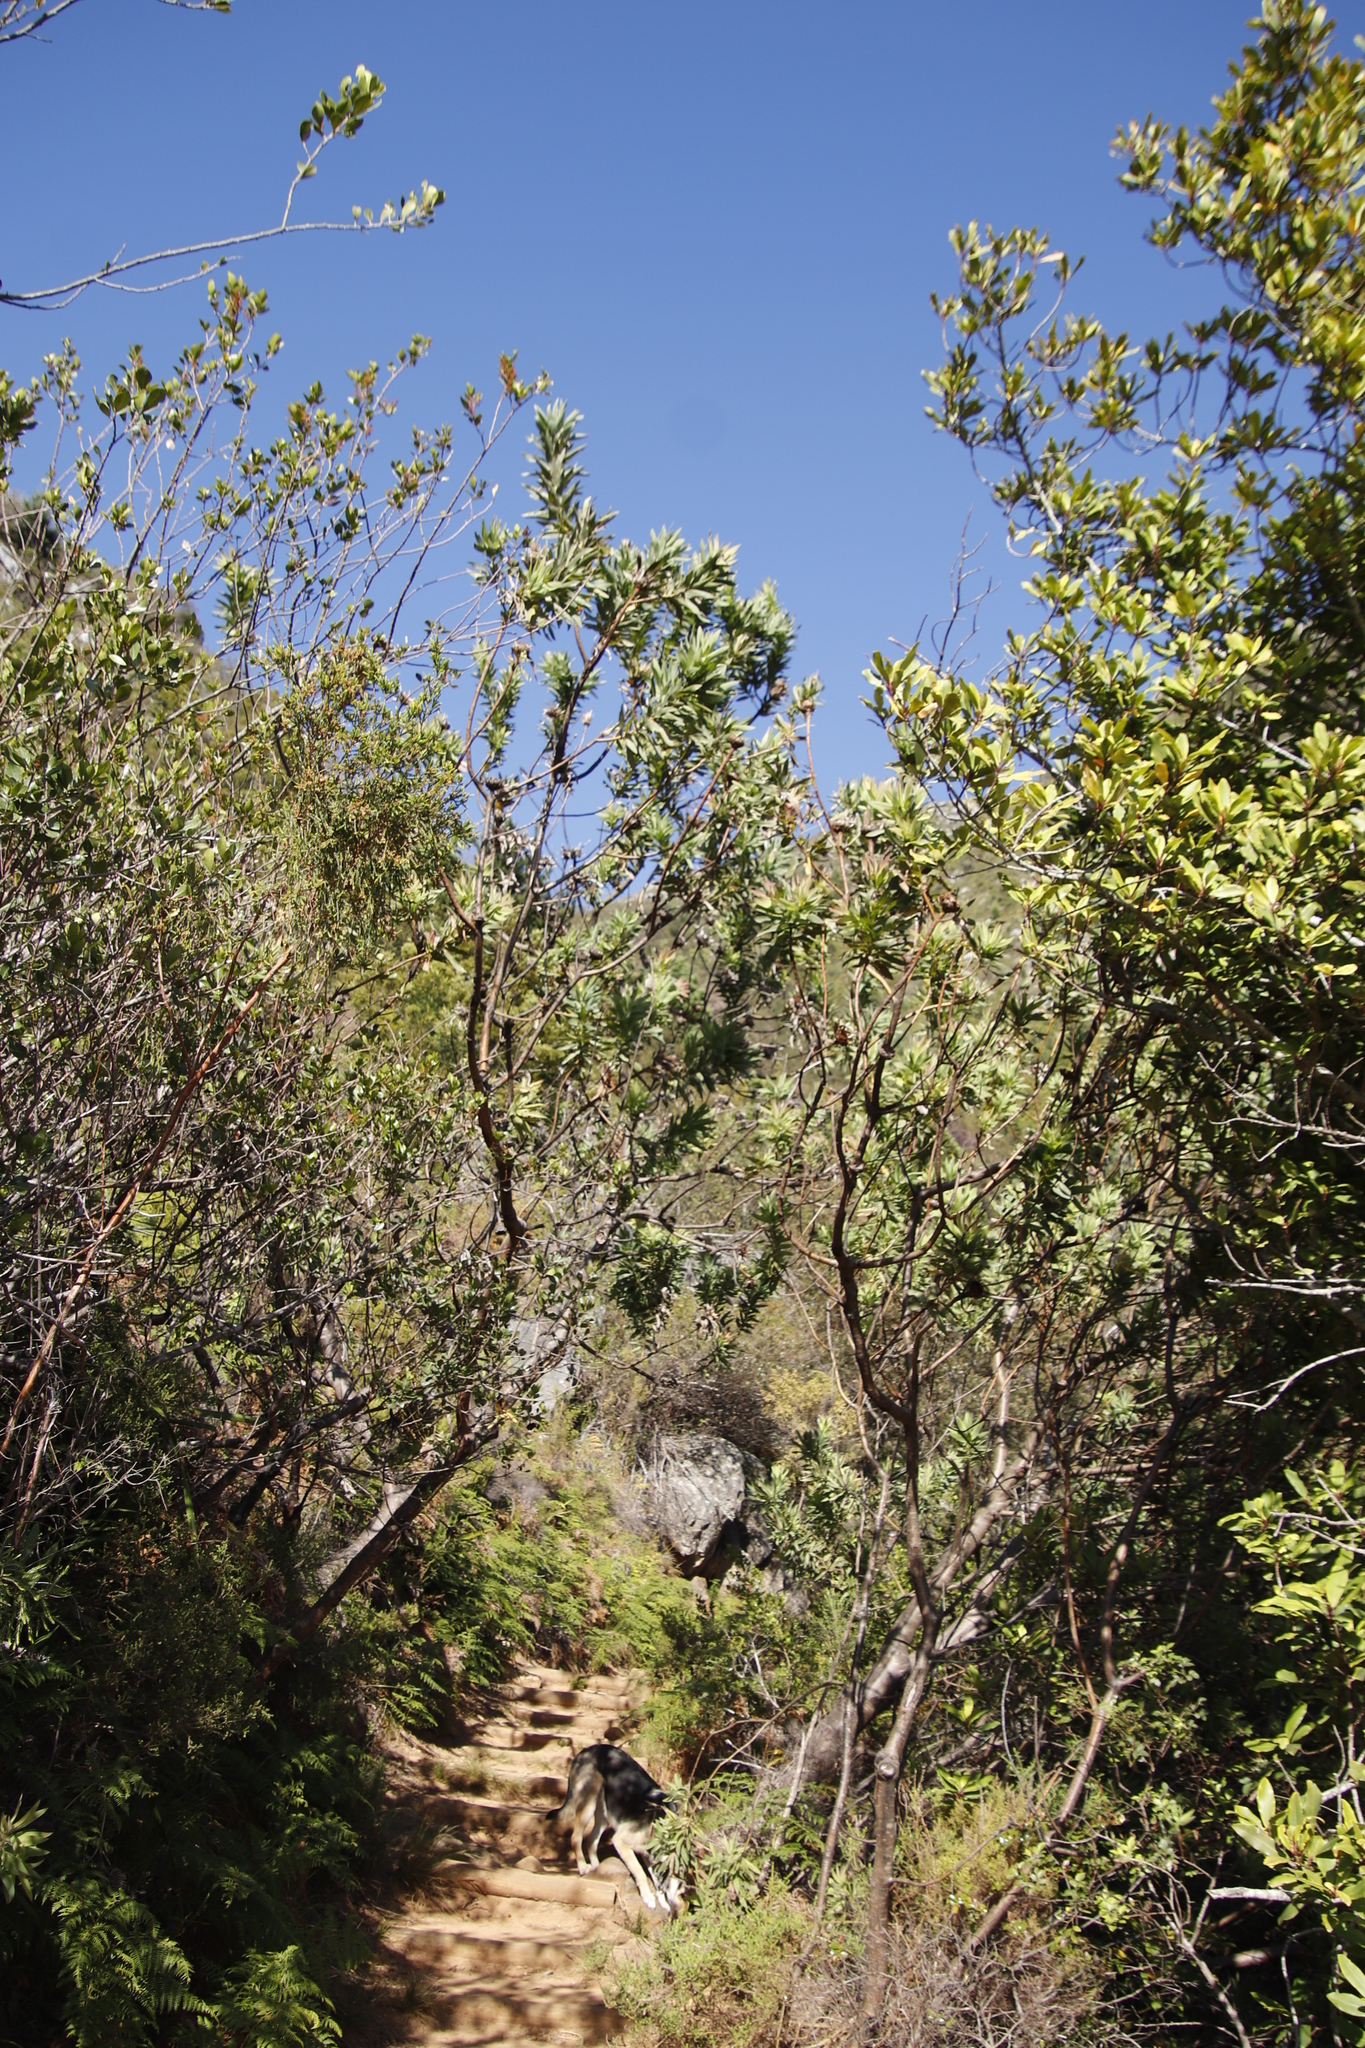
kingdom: Plantae
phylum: Tracheophyta
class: Magnoliopsida
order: Proteales
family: Proteaceae
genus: Protea
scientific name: Protea coronata
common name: Green sugarbush
